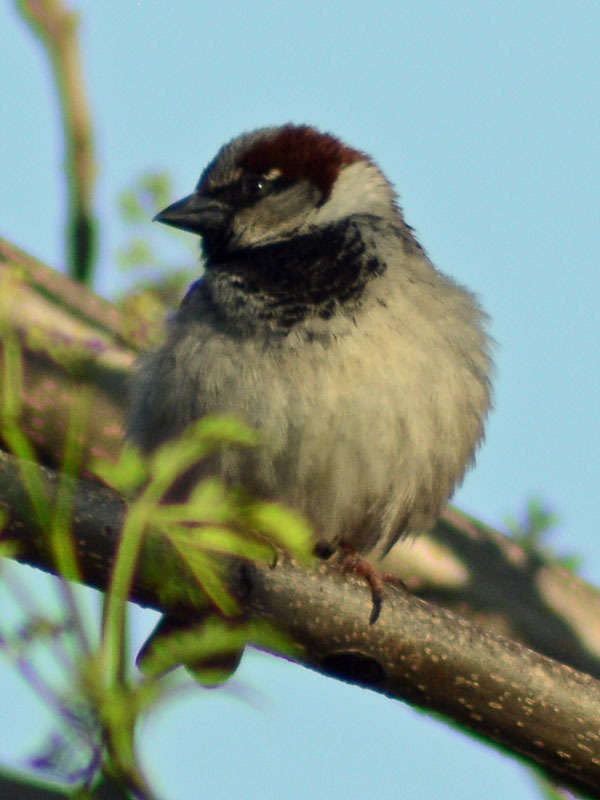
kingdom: Animalia
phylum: Chordata
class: Aves
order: Passeriformes
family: Passeridae
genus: Passer
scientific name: Passer domesticus
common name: House sparrow
